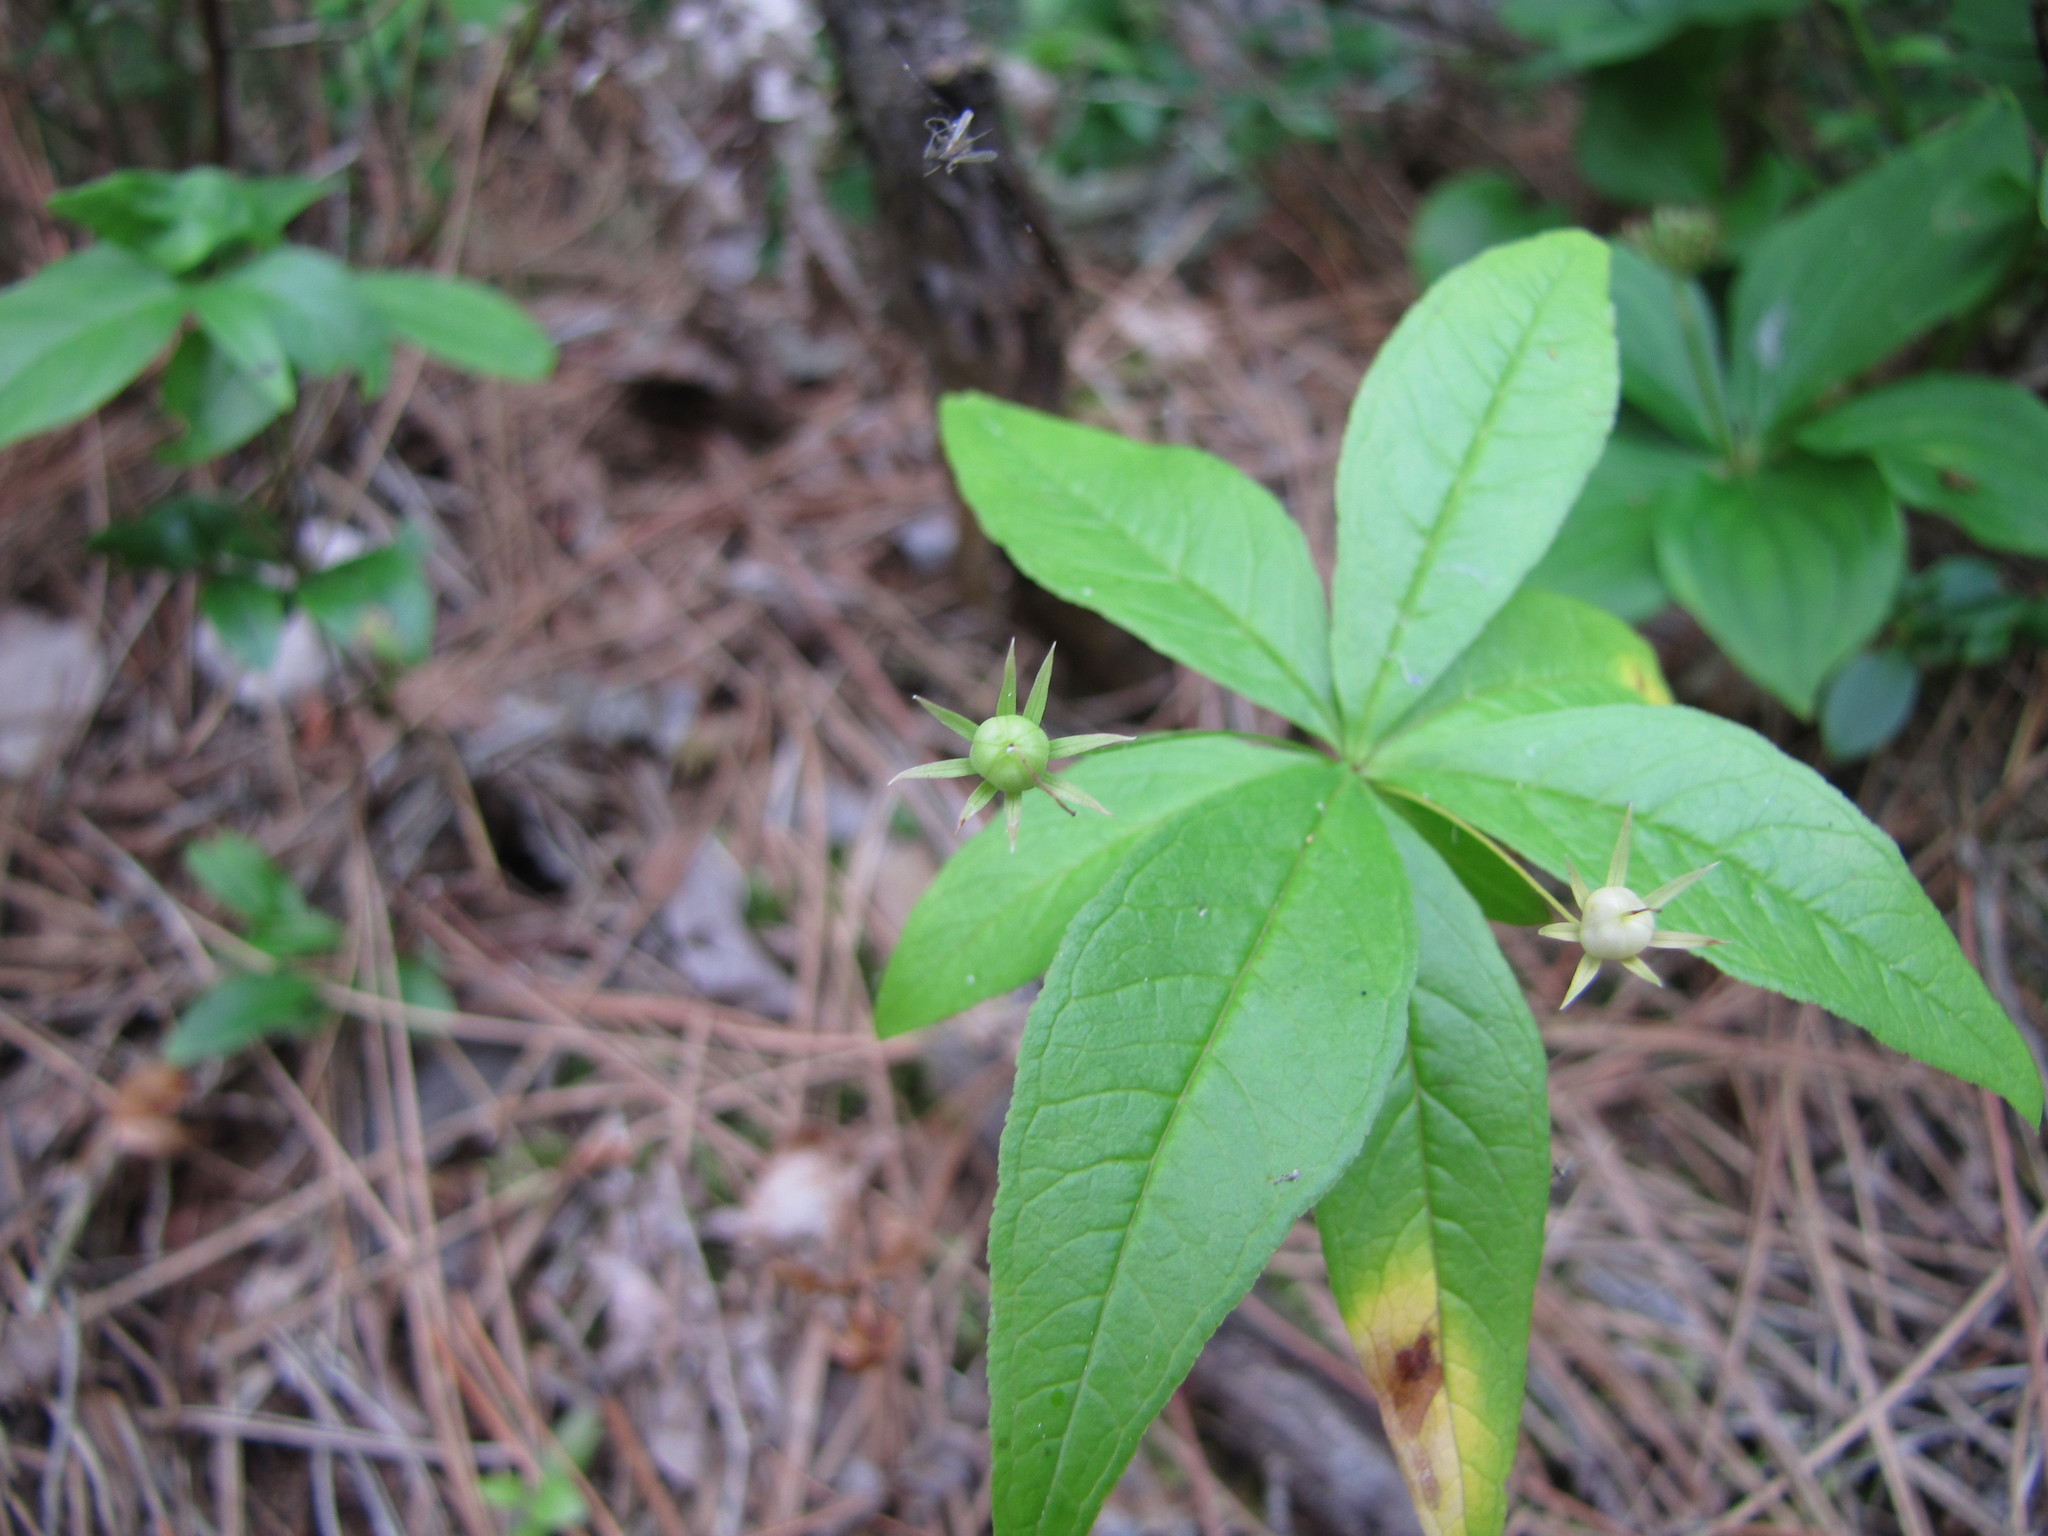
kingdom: Plantae
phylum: Tracheophyta
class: Magnoliopsida
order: Ericales
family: Primulaceae
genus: Lysimachia
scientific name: Lysimachia borealis
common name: American starflower
